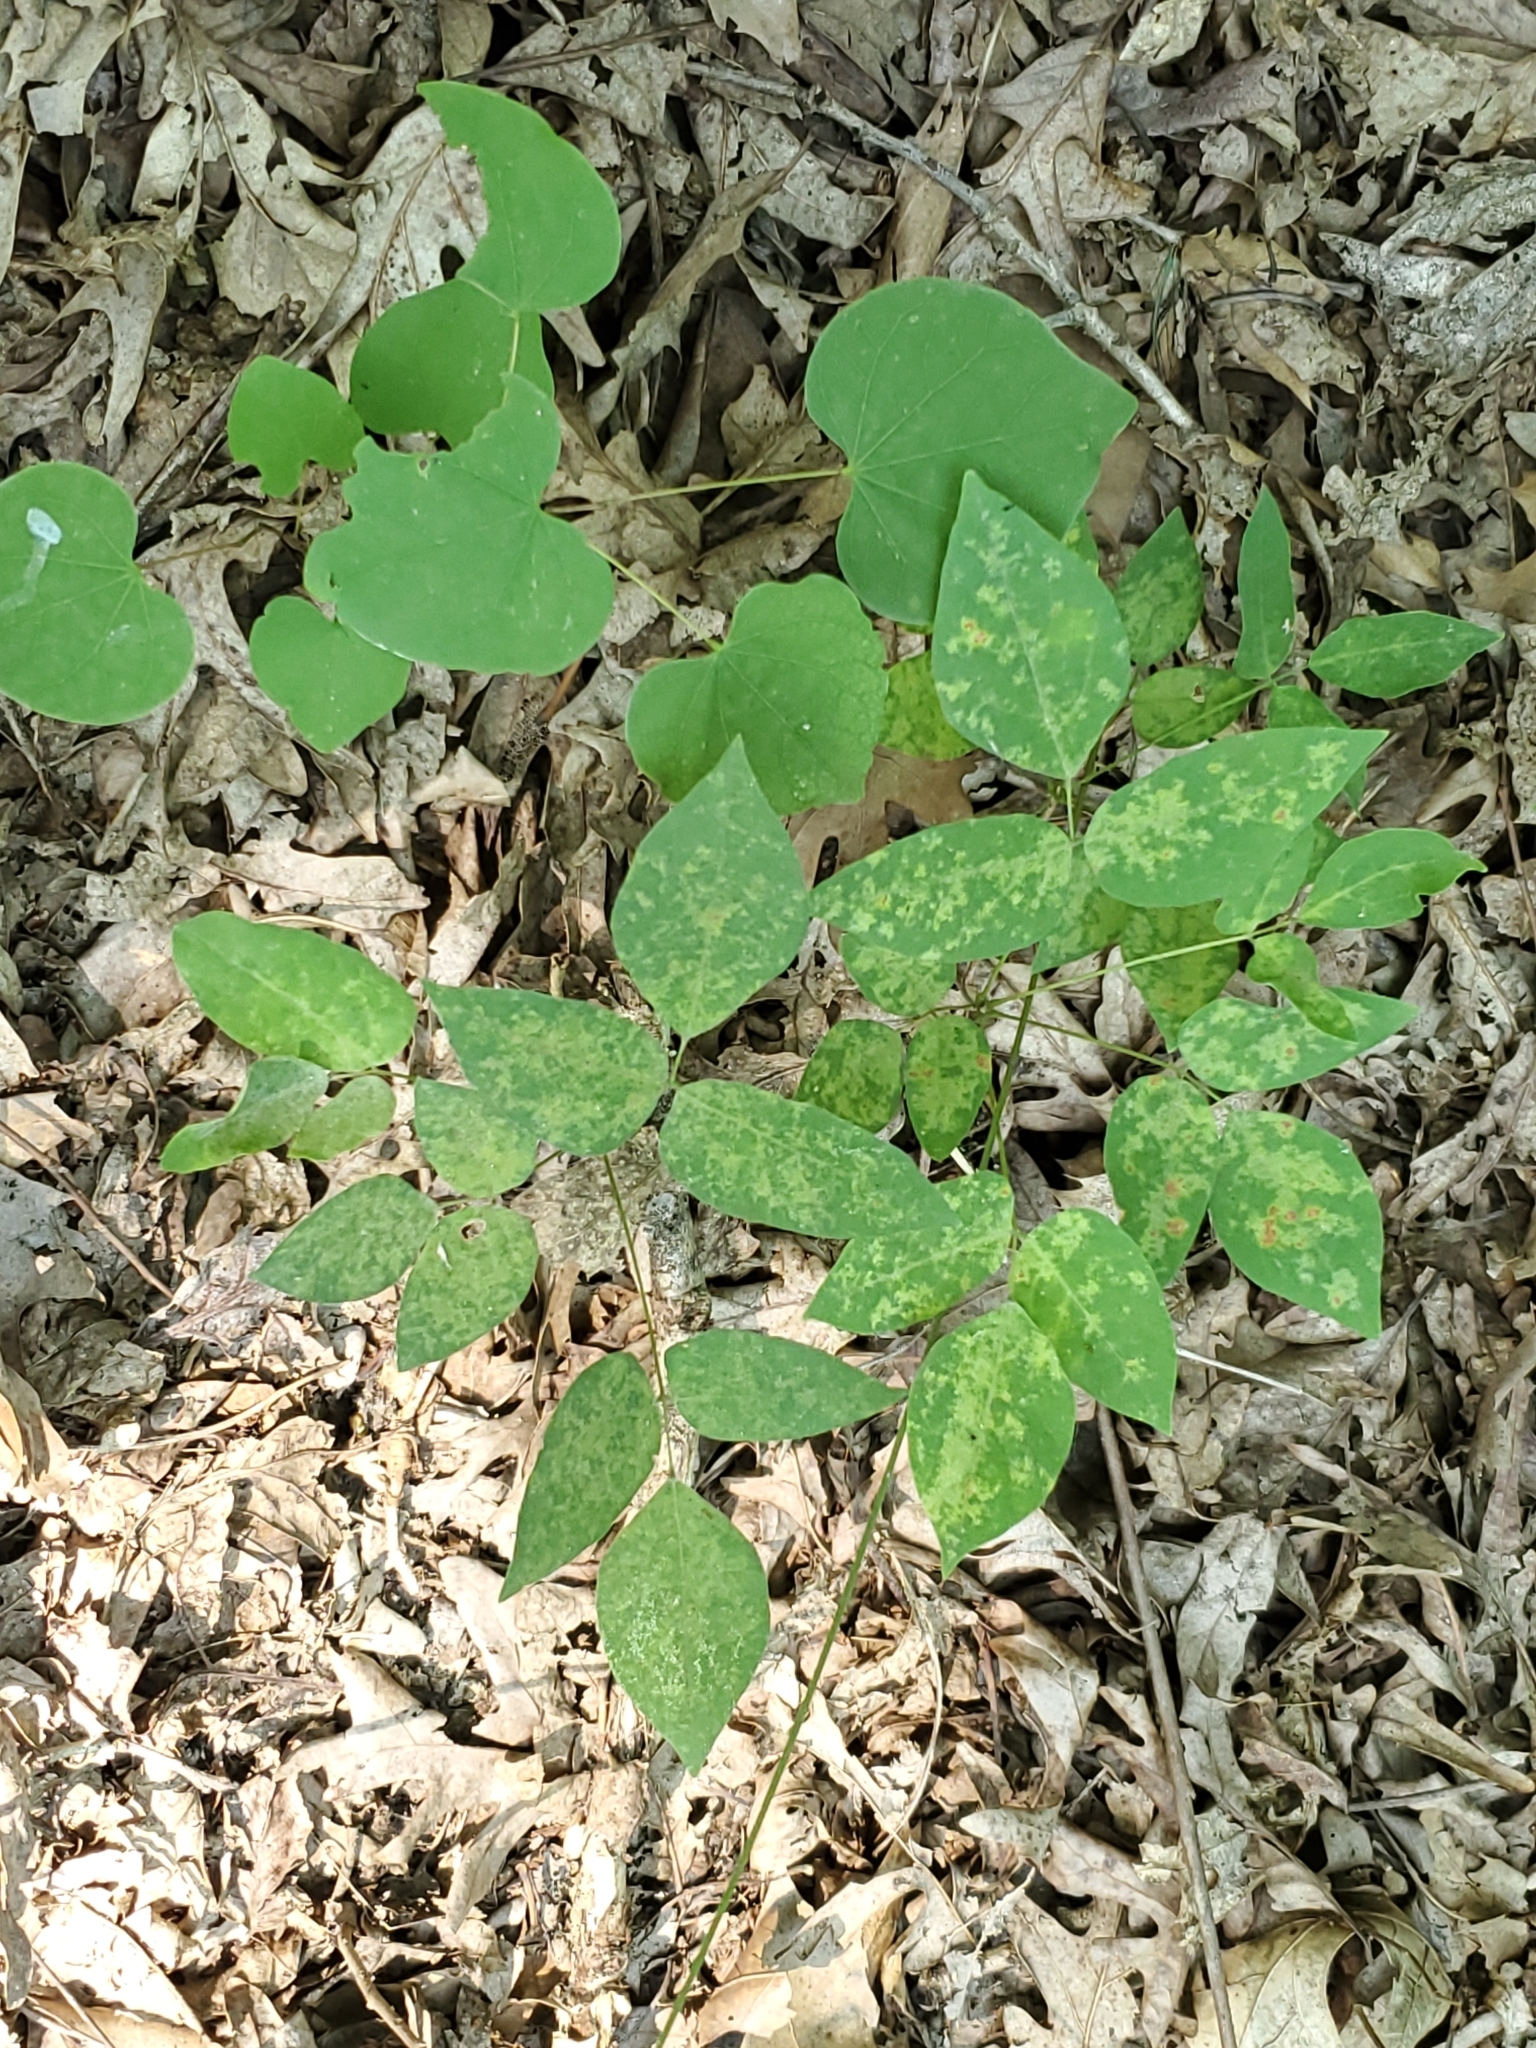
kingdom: Plantae
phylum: Tracheophyta
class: Magnoliopsida
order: Fabales
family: Fabaceae
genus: Hylodesmum
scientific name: Hylodesmum nudiflorum
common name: Bare-stemmed tick-trefoil
